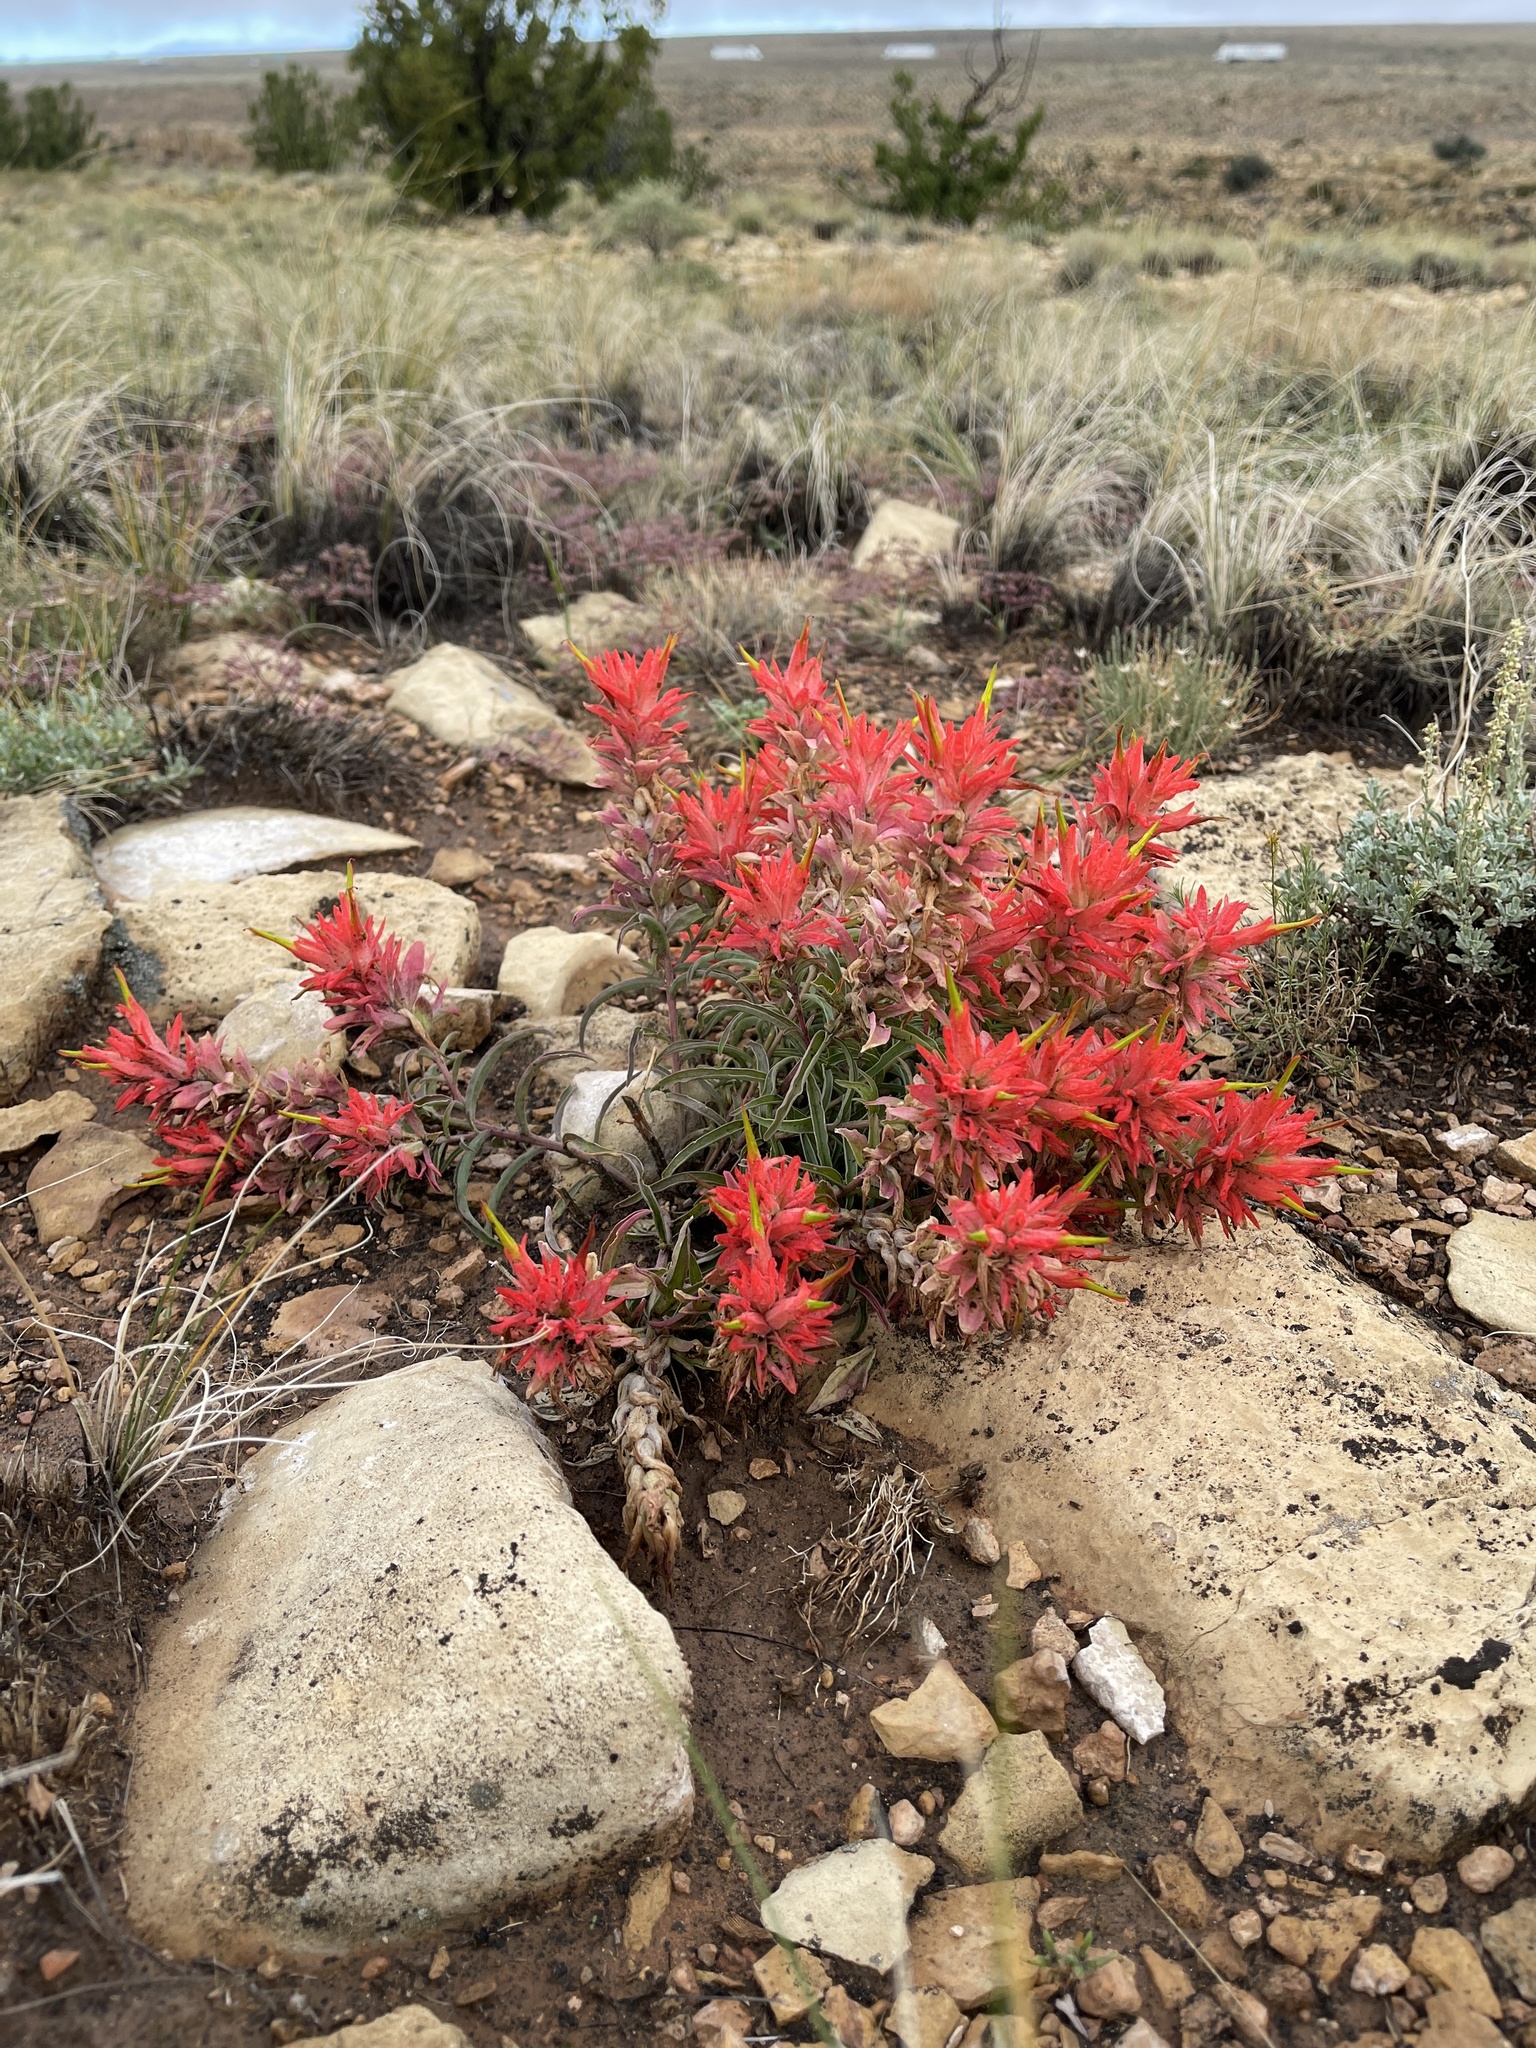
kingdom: Plantae
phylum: Tracheophyta
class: Magnoliopsida
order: Lamiales
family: Orobanchaceae
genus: Castilleja
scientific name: Castilleja integra
